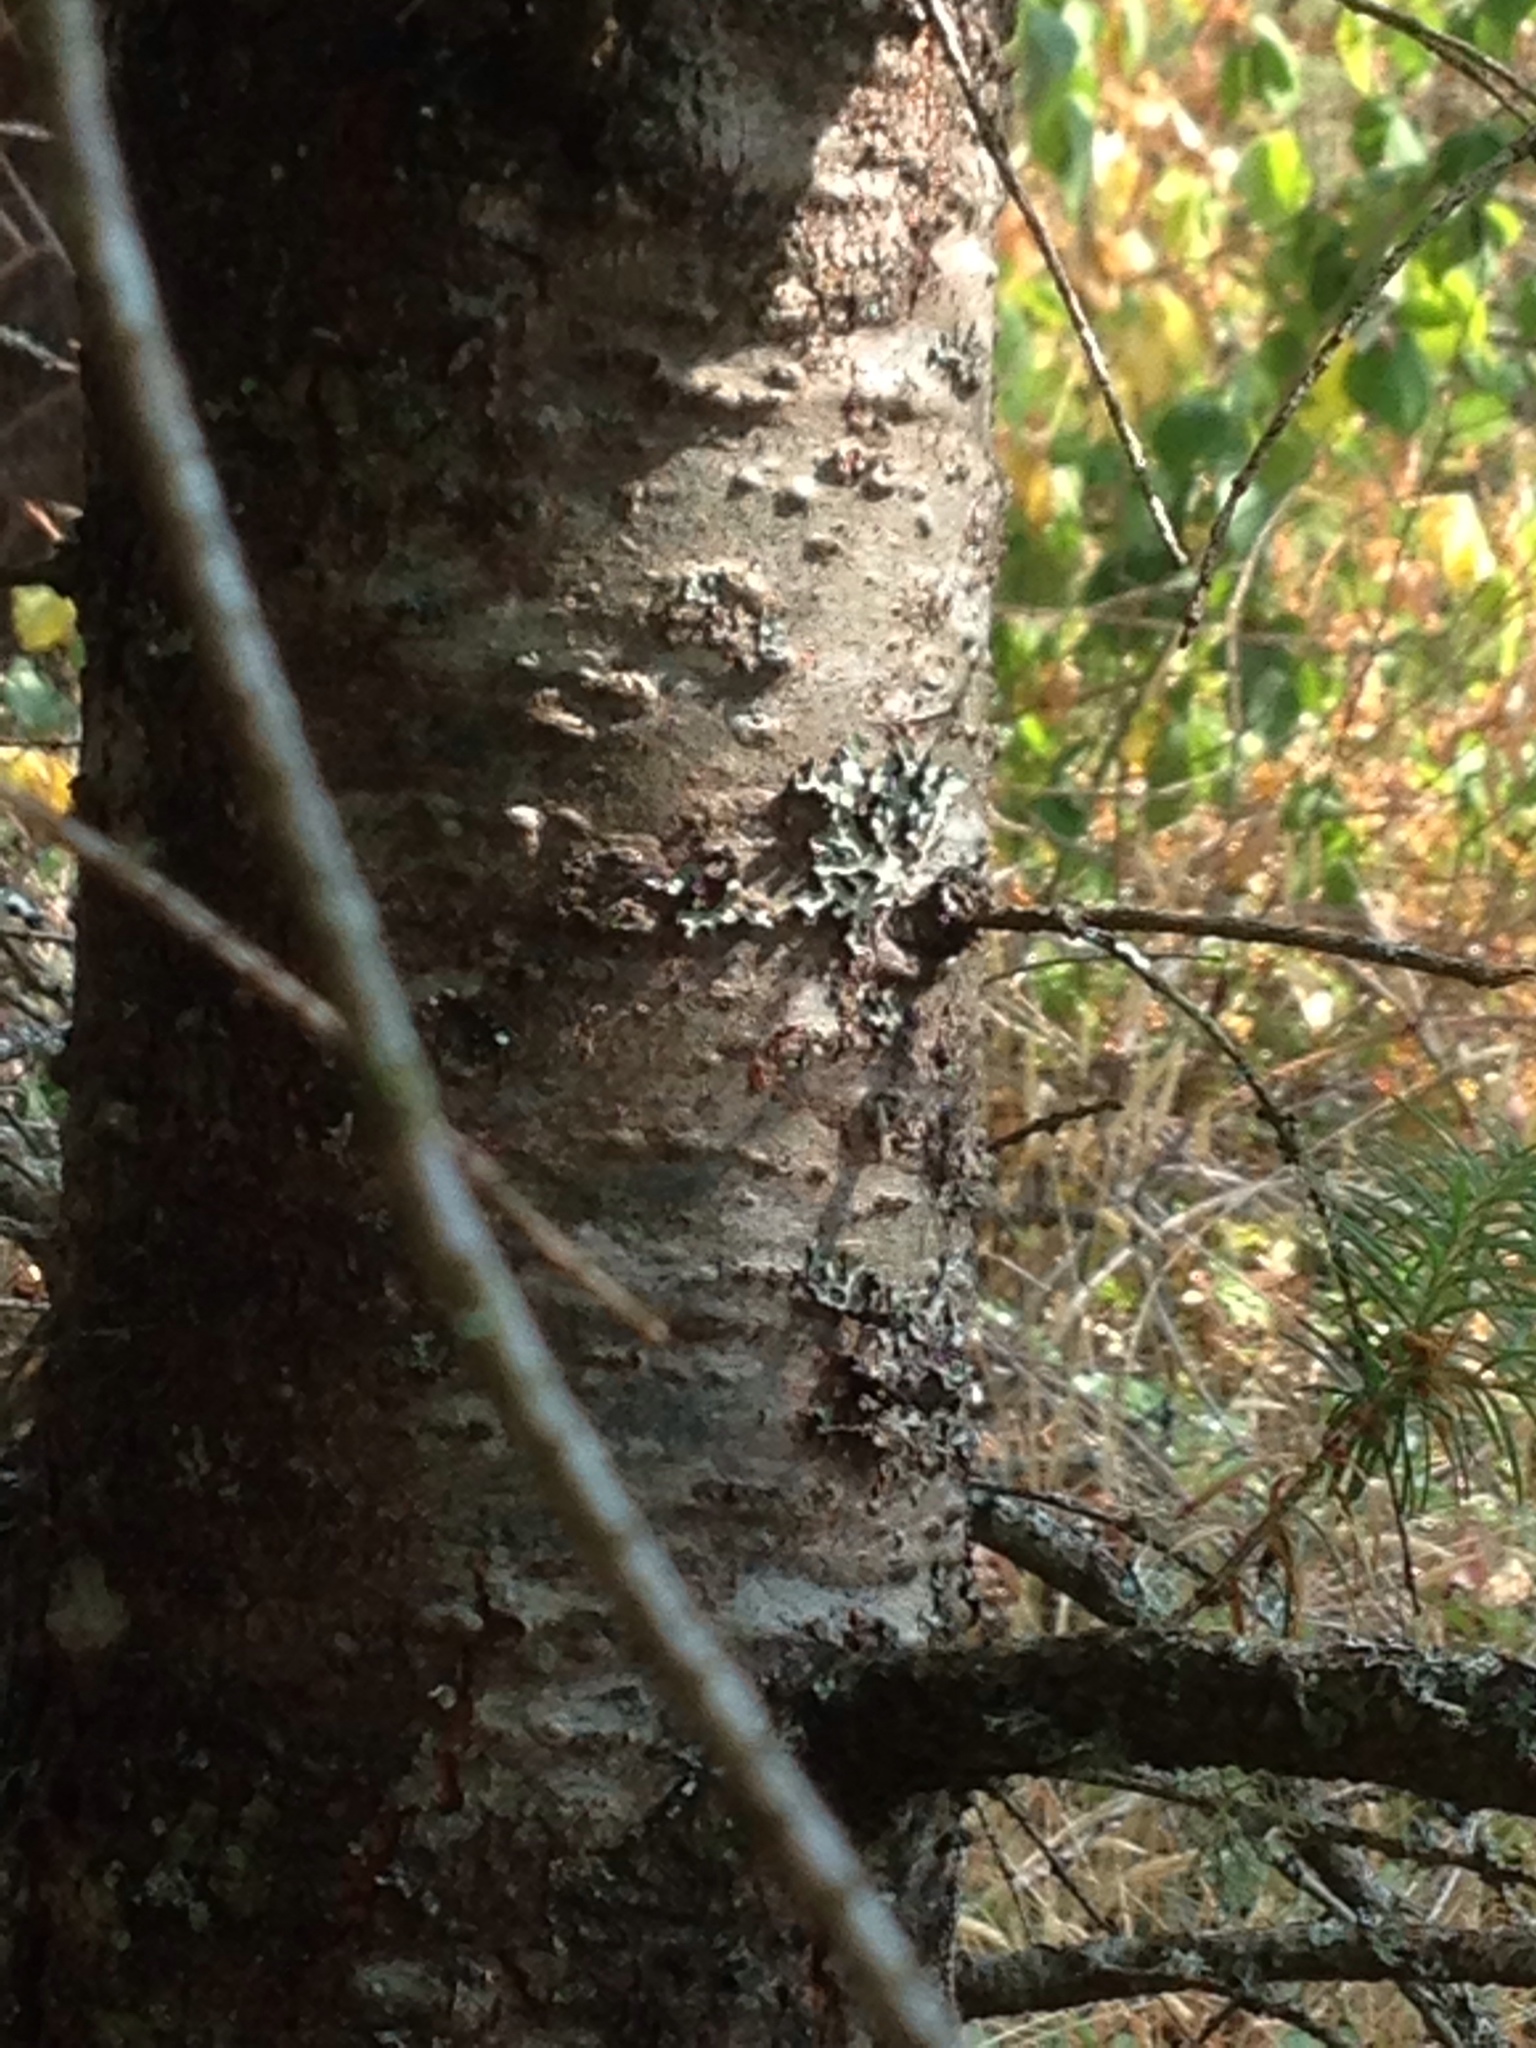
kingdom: Plantae
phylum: Tracheophyta
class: Pinopsida
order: Pinales
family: Pinaceae
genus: Pseudotsuga
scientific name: Pseudotsuga menziesii
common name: Douglas fir
